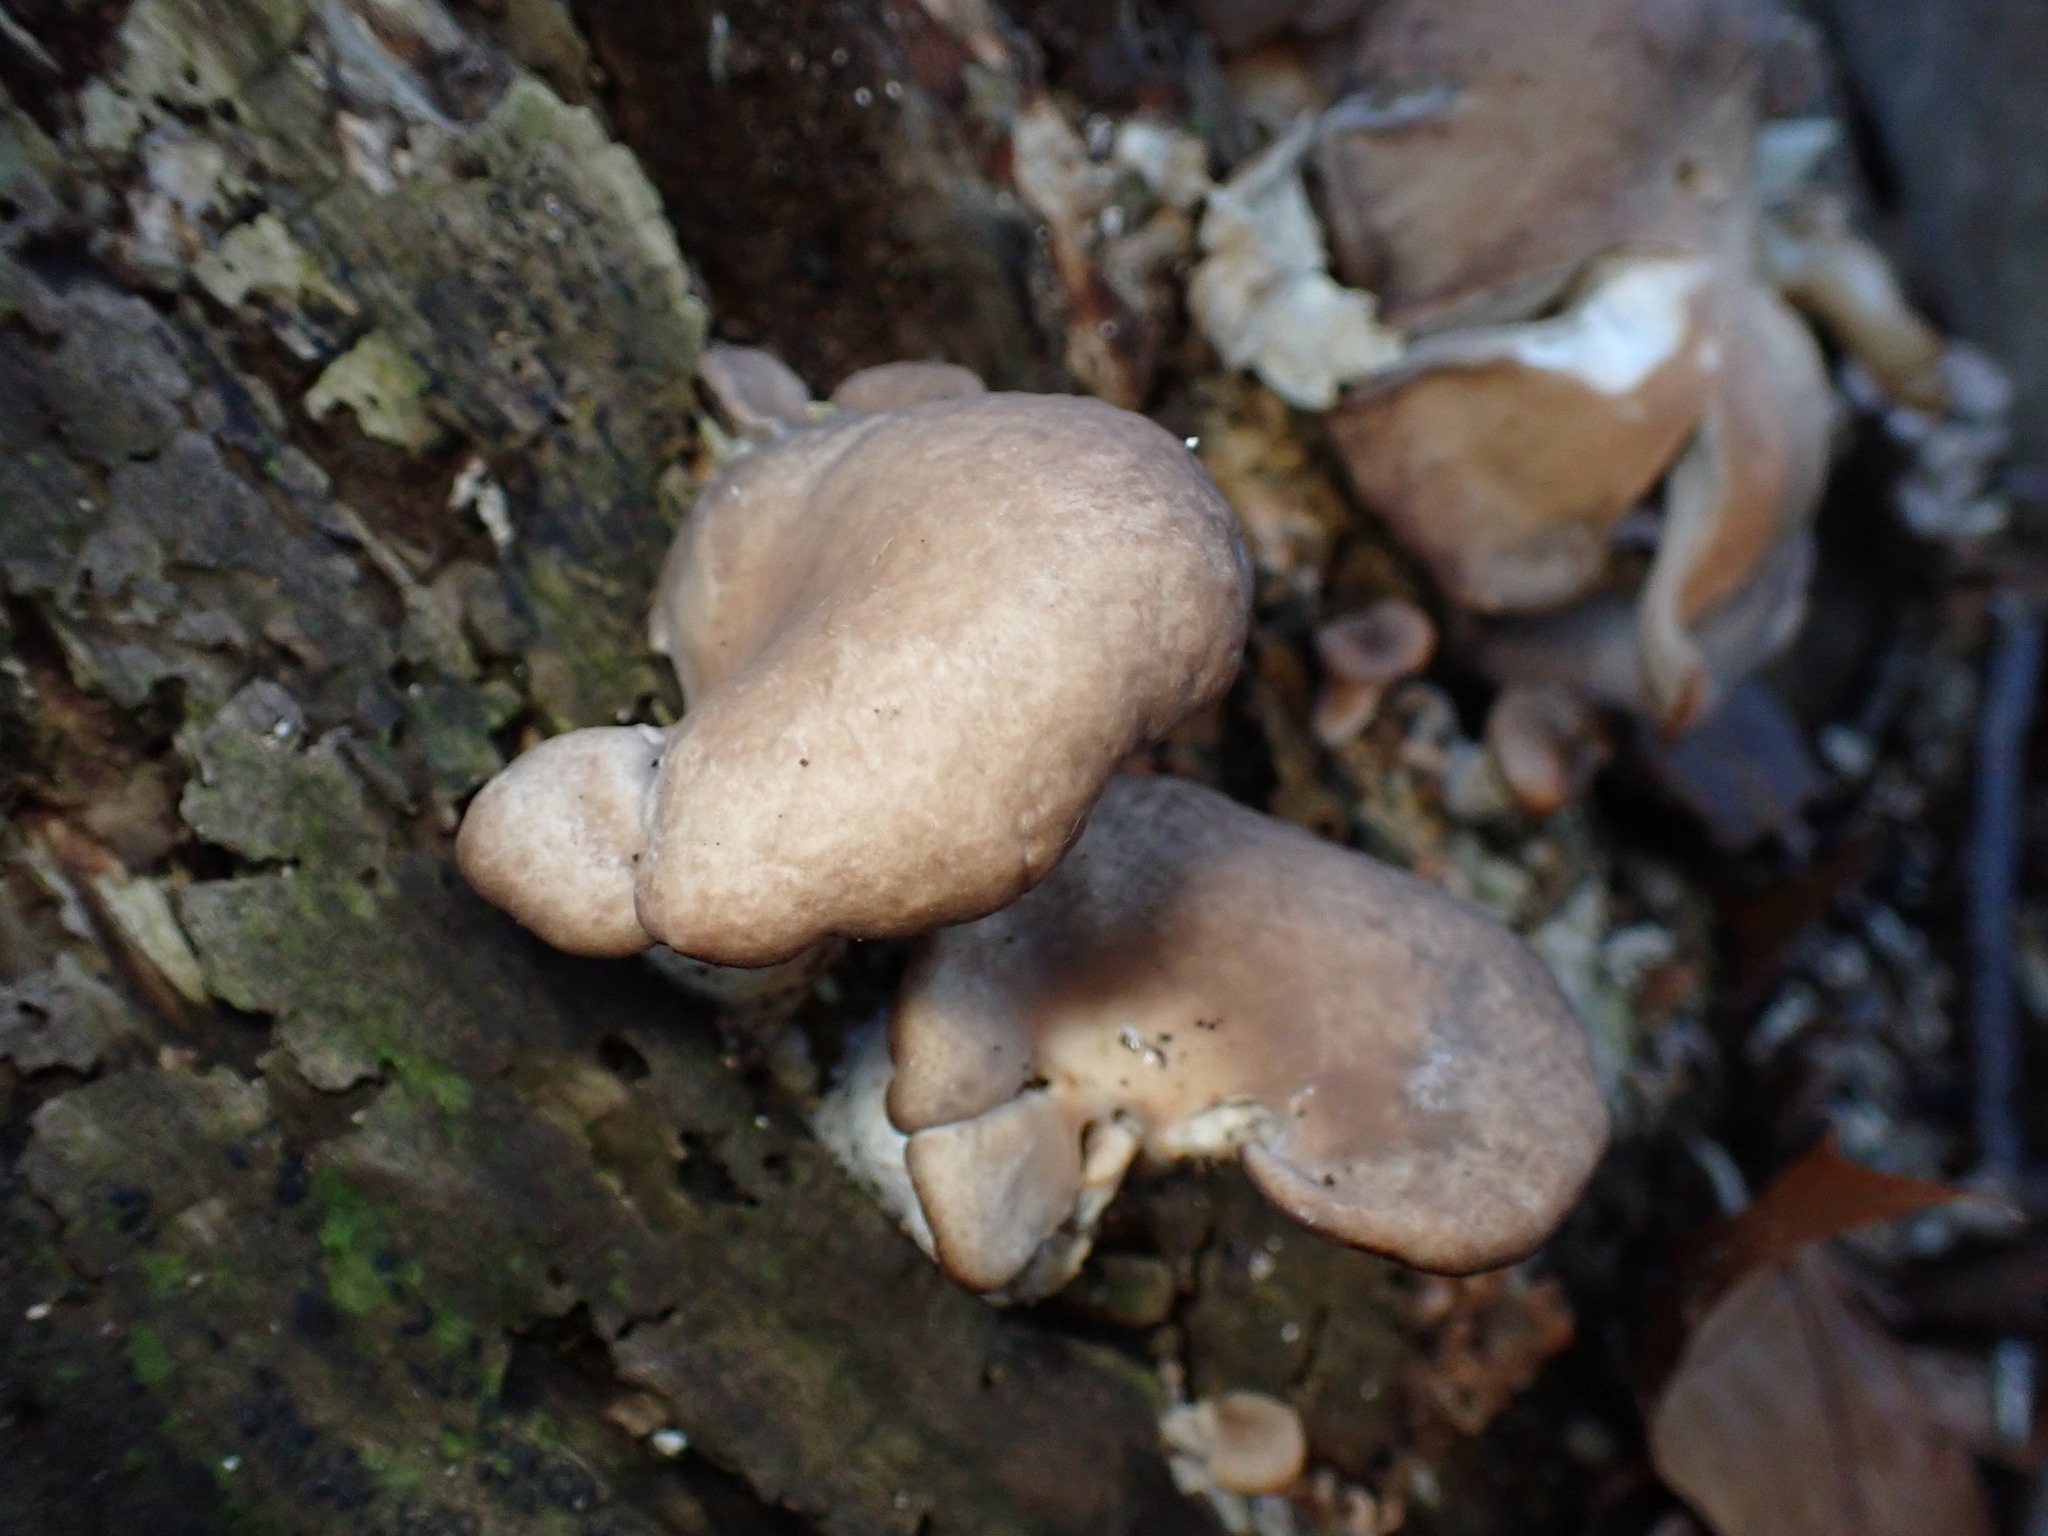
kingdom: Fungi
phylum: Basidiomycota
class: Agaricomycetes
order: Agaricales
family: Pleurotaceae
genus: Pleurotus
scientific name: Pleurotus ostreatus
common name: Oyster mushroom
